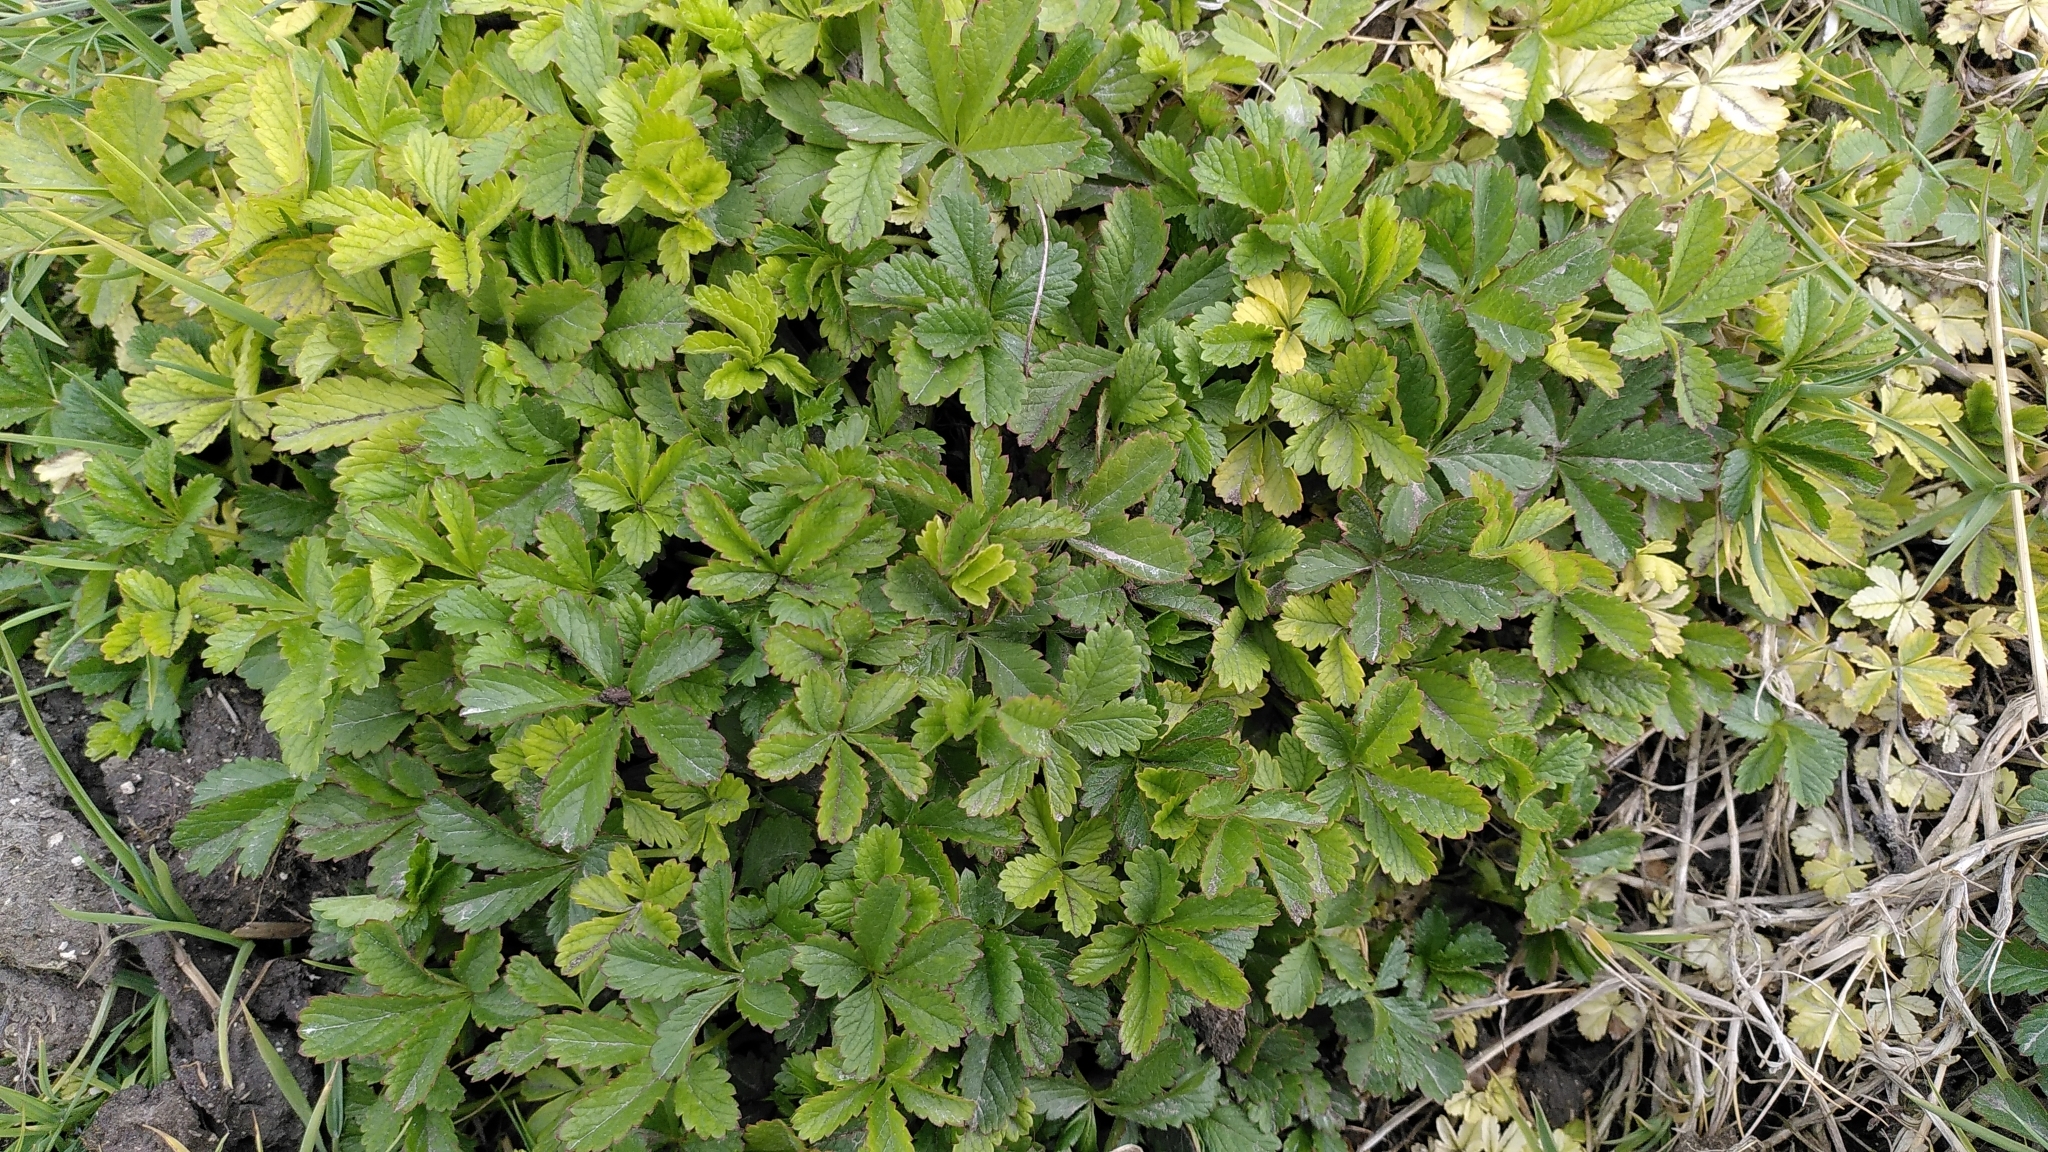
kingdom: Plantae
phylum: Tracheophyta
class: Magnoliopsida
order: Rosales
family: Rosaceae
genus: Potentilla
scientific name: Potentilla reptans
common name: Creeping cinquefoil
